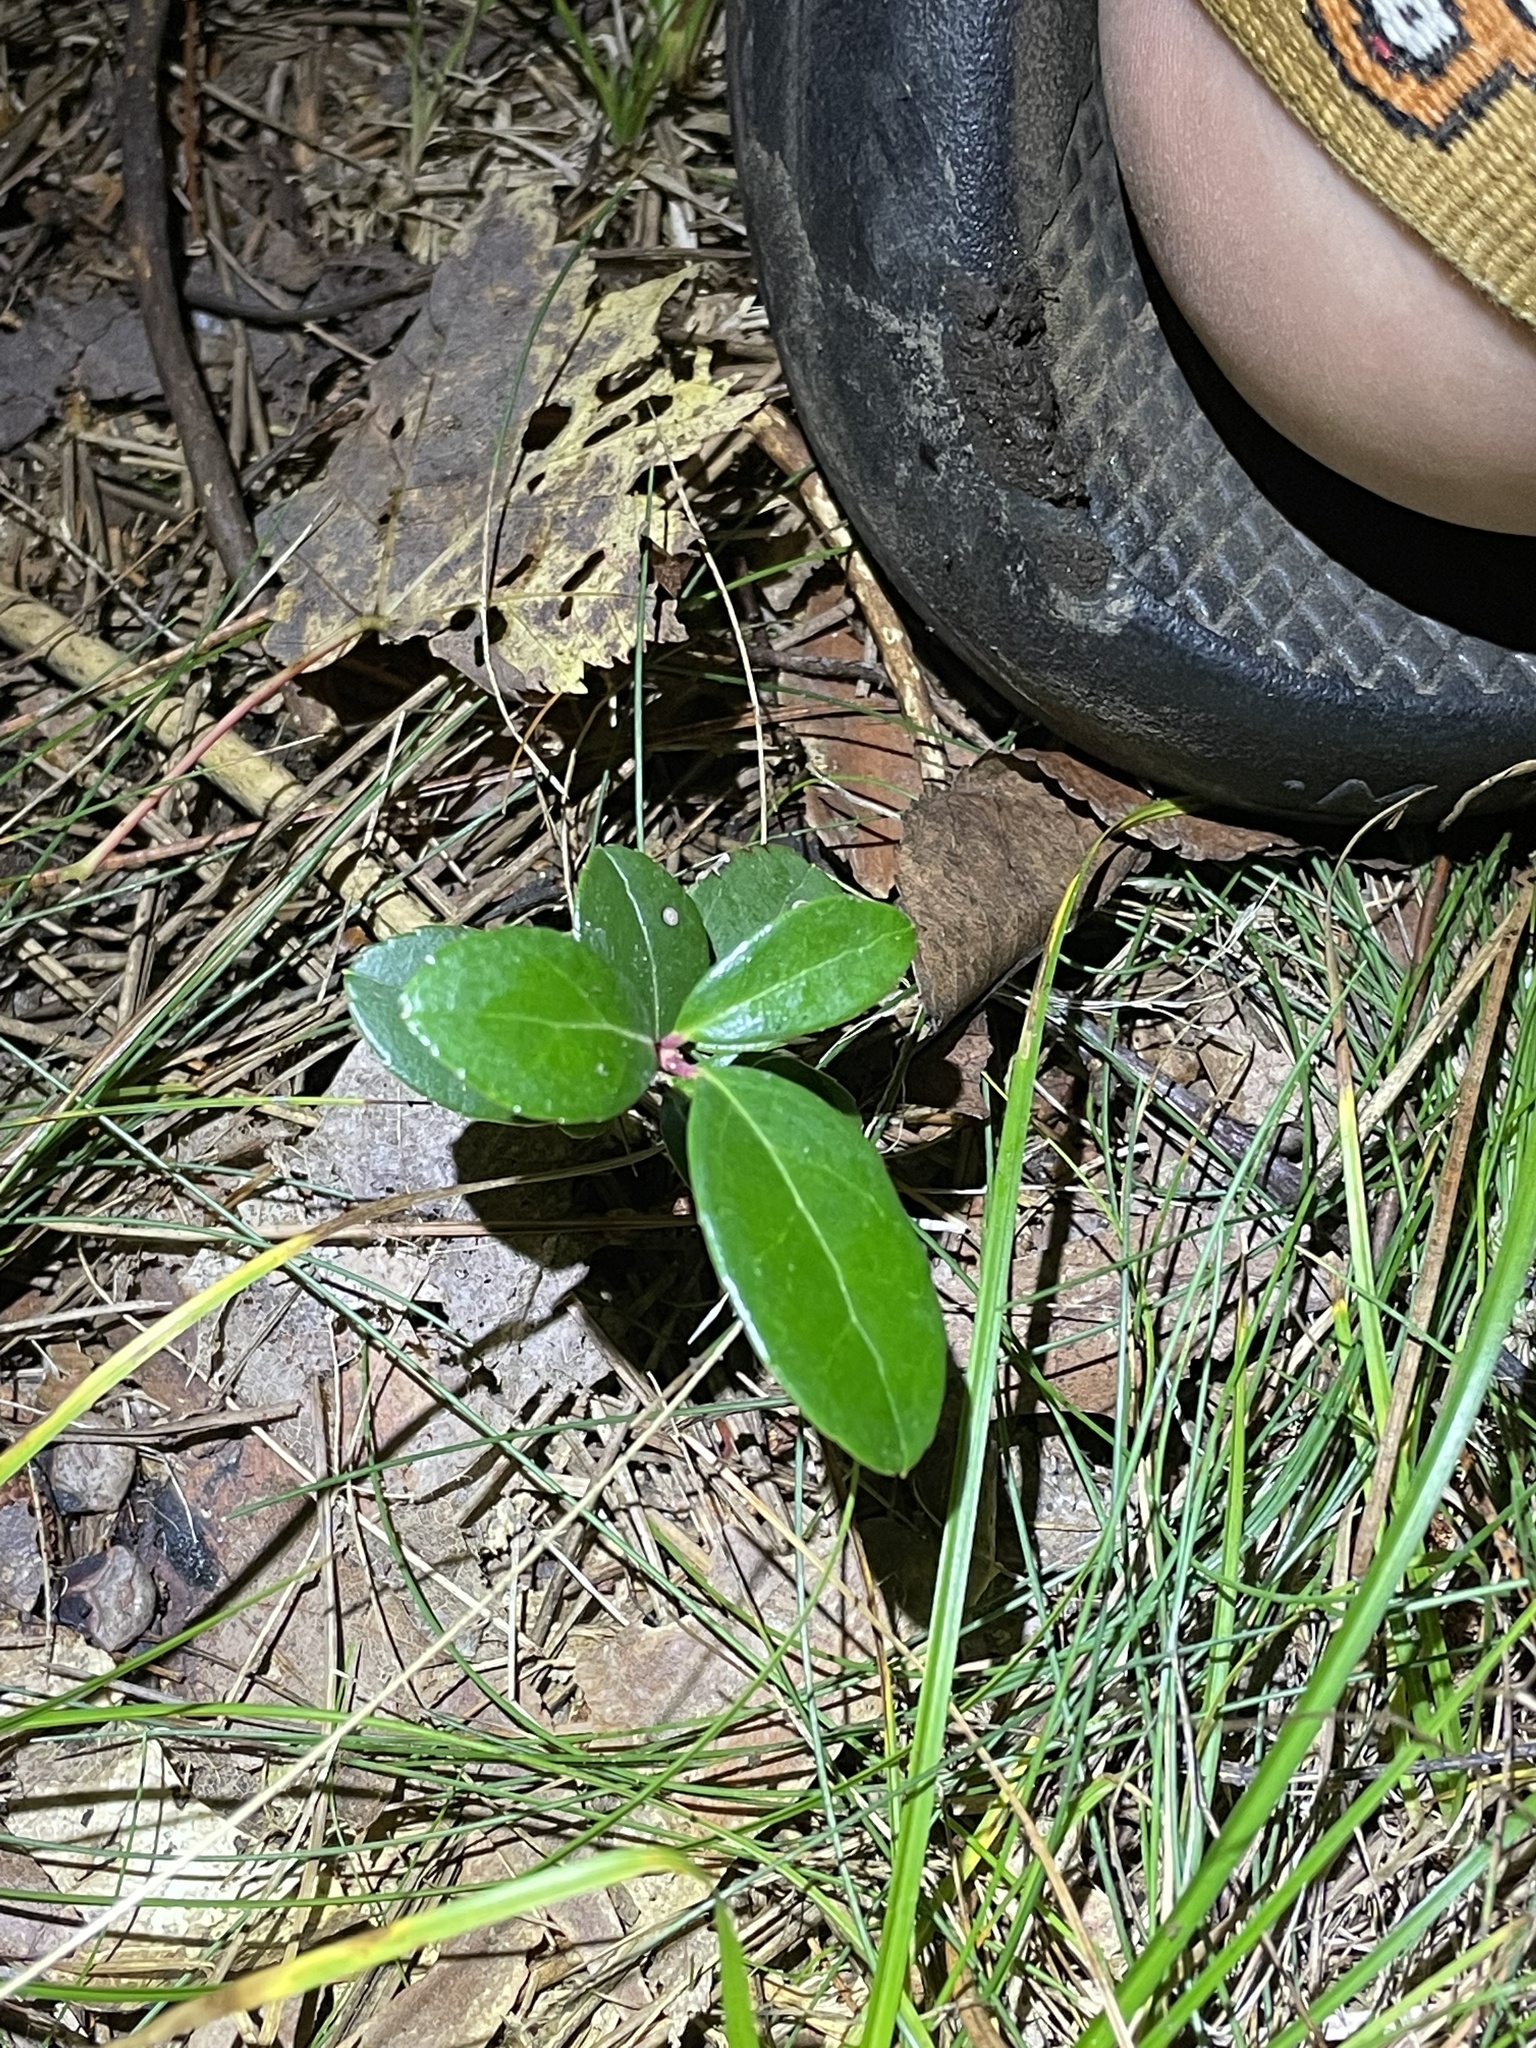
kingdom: Plantae
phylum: Tracheophyta
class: Magnoliopsida
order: Ericales
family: Ericaceae
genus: Gaultheria
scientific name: Gaultheria procumbens
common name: Checkerberry
